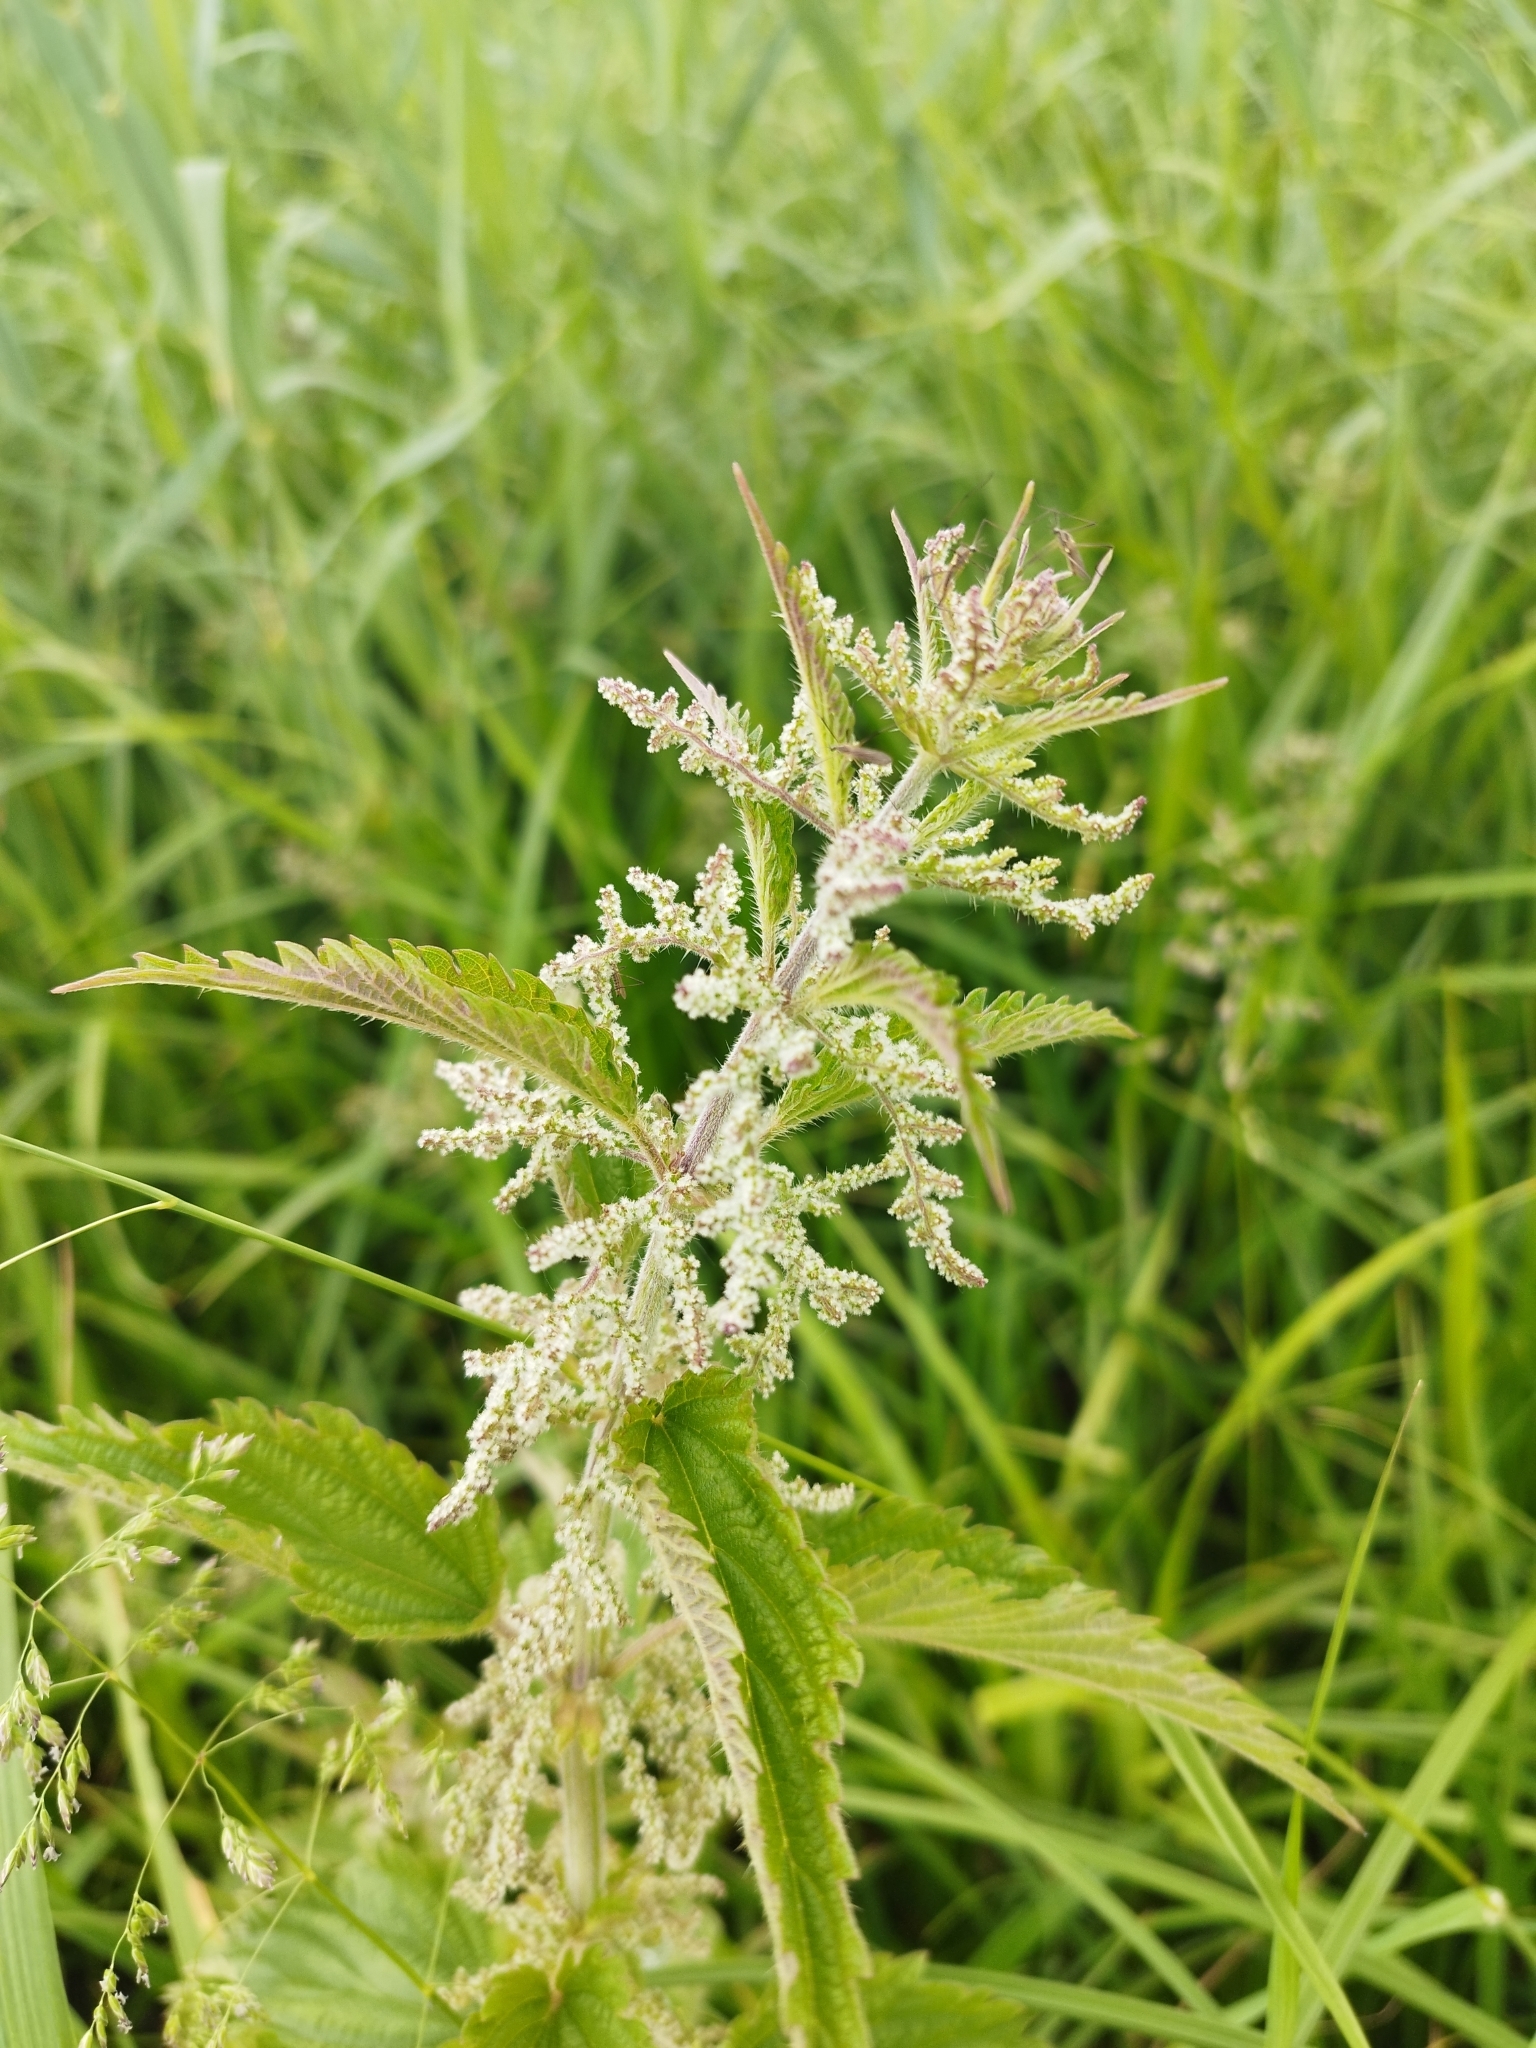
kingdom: Plantae
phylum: Tracheophyta
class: Magnoliopsida
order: Rosales
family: Urticaceae
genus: Urtica
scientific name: Urtica dioica
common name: Common nettle
